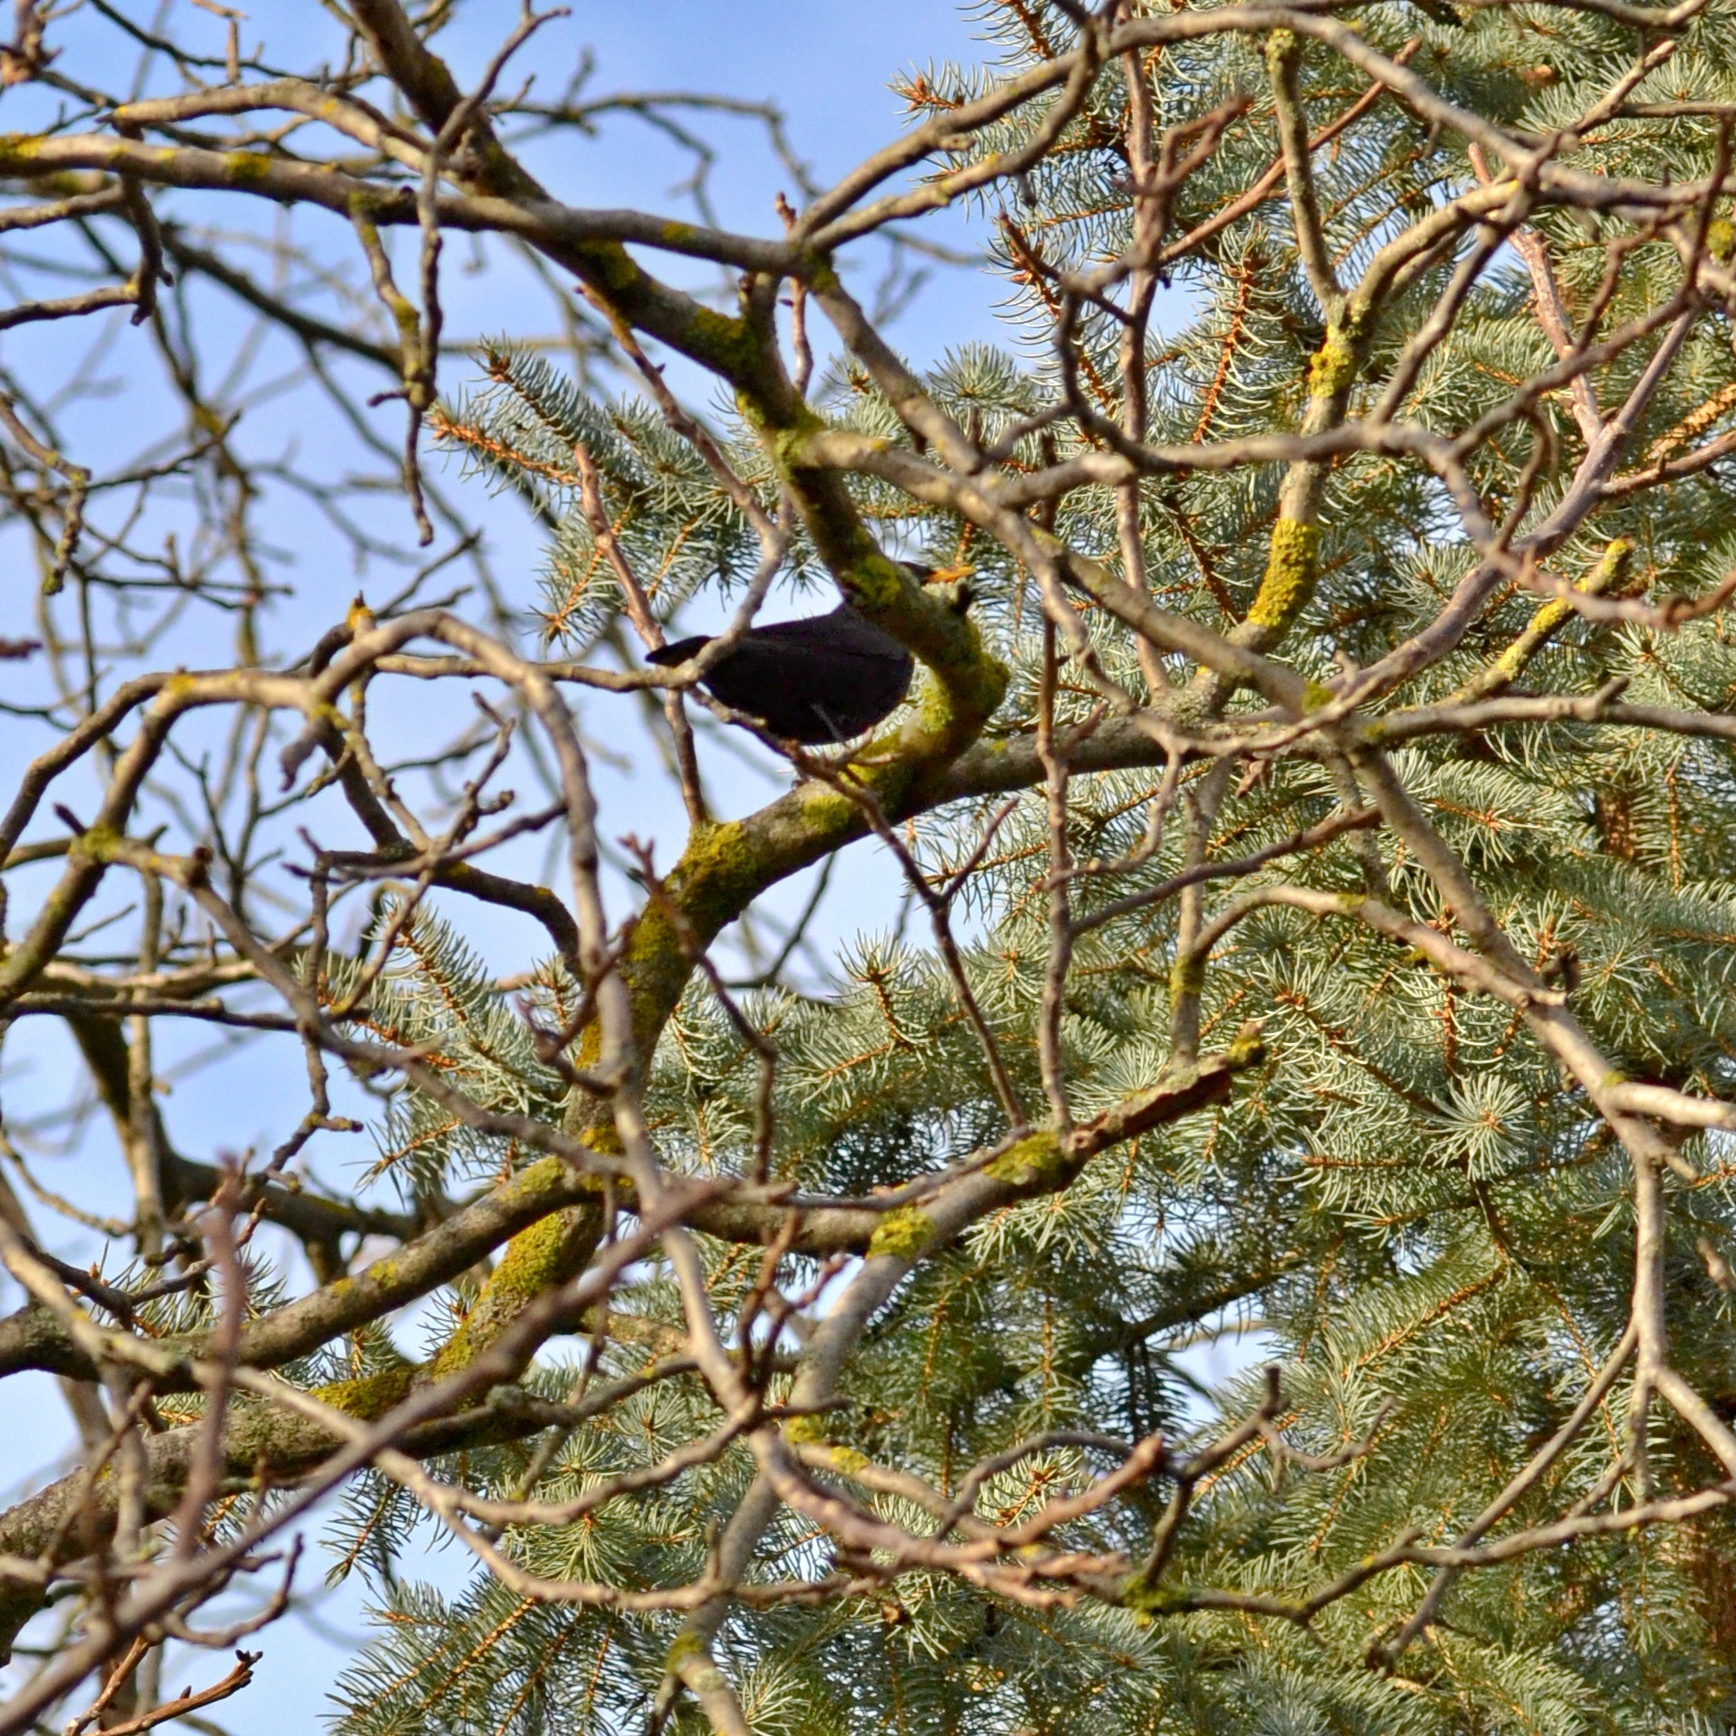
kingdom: Animalia
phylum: Chordata
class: Aves
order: Passeriformes
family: Turdidae
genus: Turdus
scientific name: Turdus merula
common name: Common blackbird
